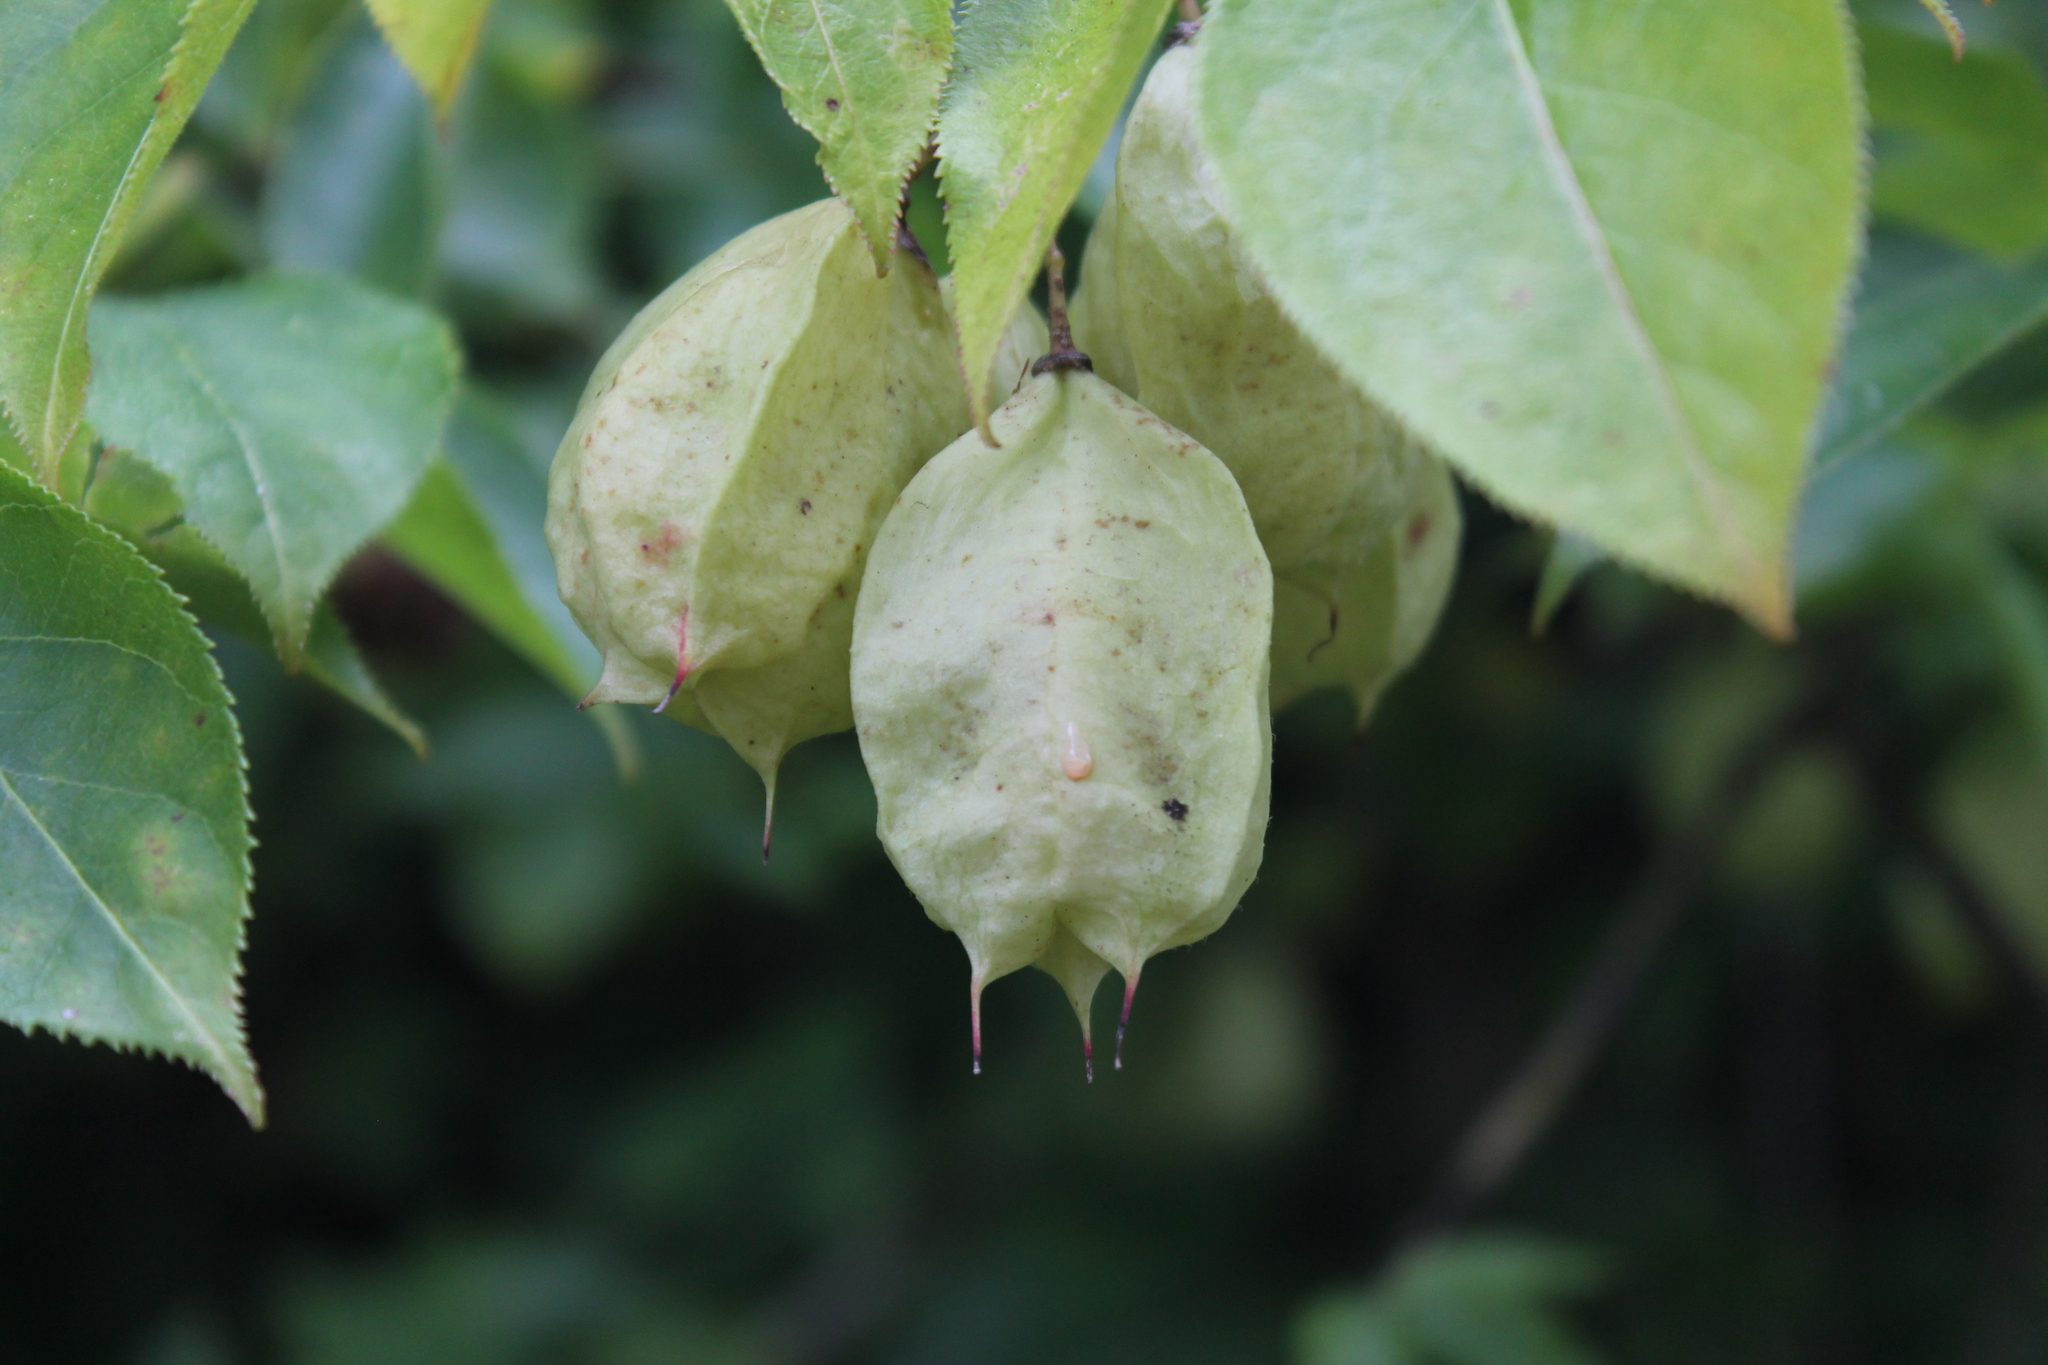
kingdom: Plantae
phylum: Tracheophyta
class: Magnoliopsida
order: Crossosomatales
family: Staphyleaceae
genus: Staphylea
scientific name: Staphylea trifolia
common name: American bladdernut
